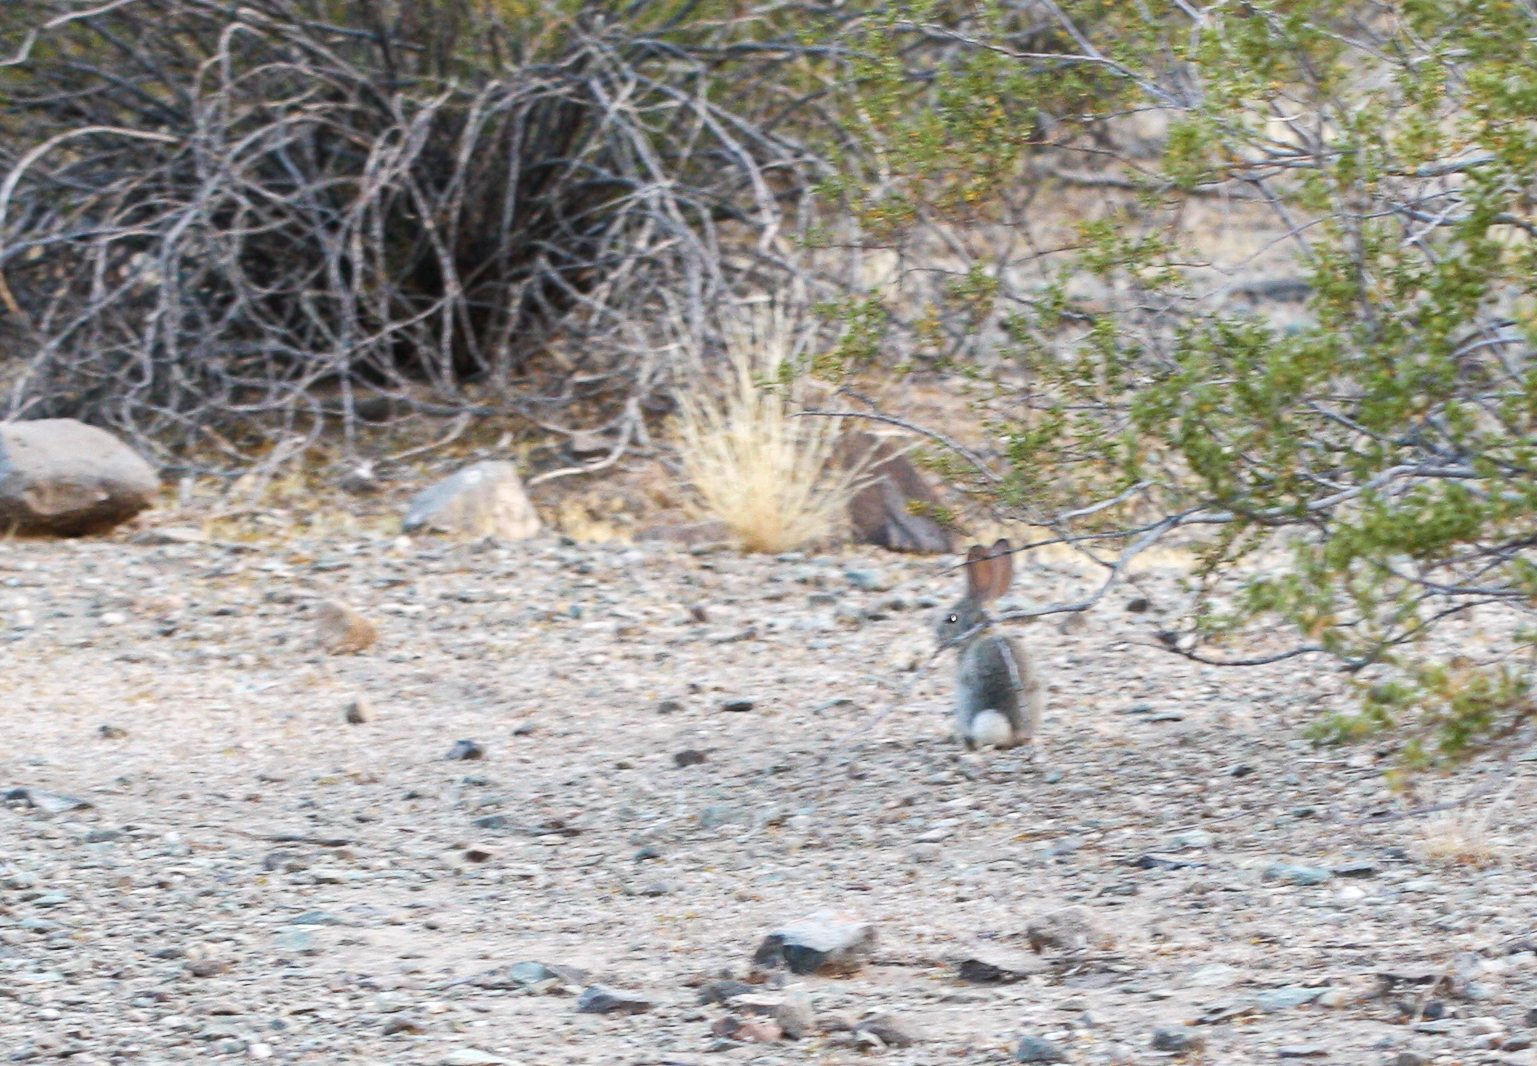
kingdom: Animalia
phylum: Chordata
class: Mammalia
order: Lagomorpha
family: Leporidae
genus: Sylvilagus
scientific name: Sylvilagus audubonii
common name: Desert cottontail
